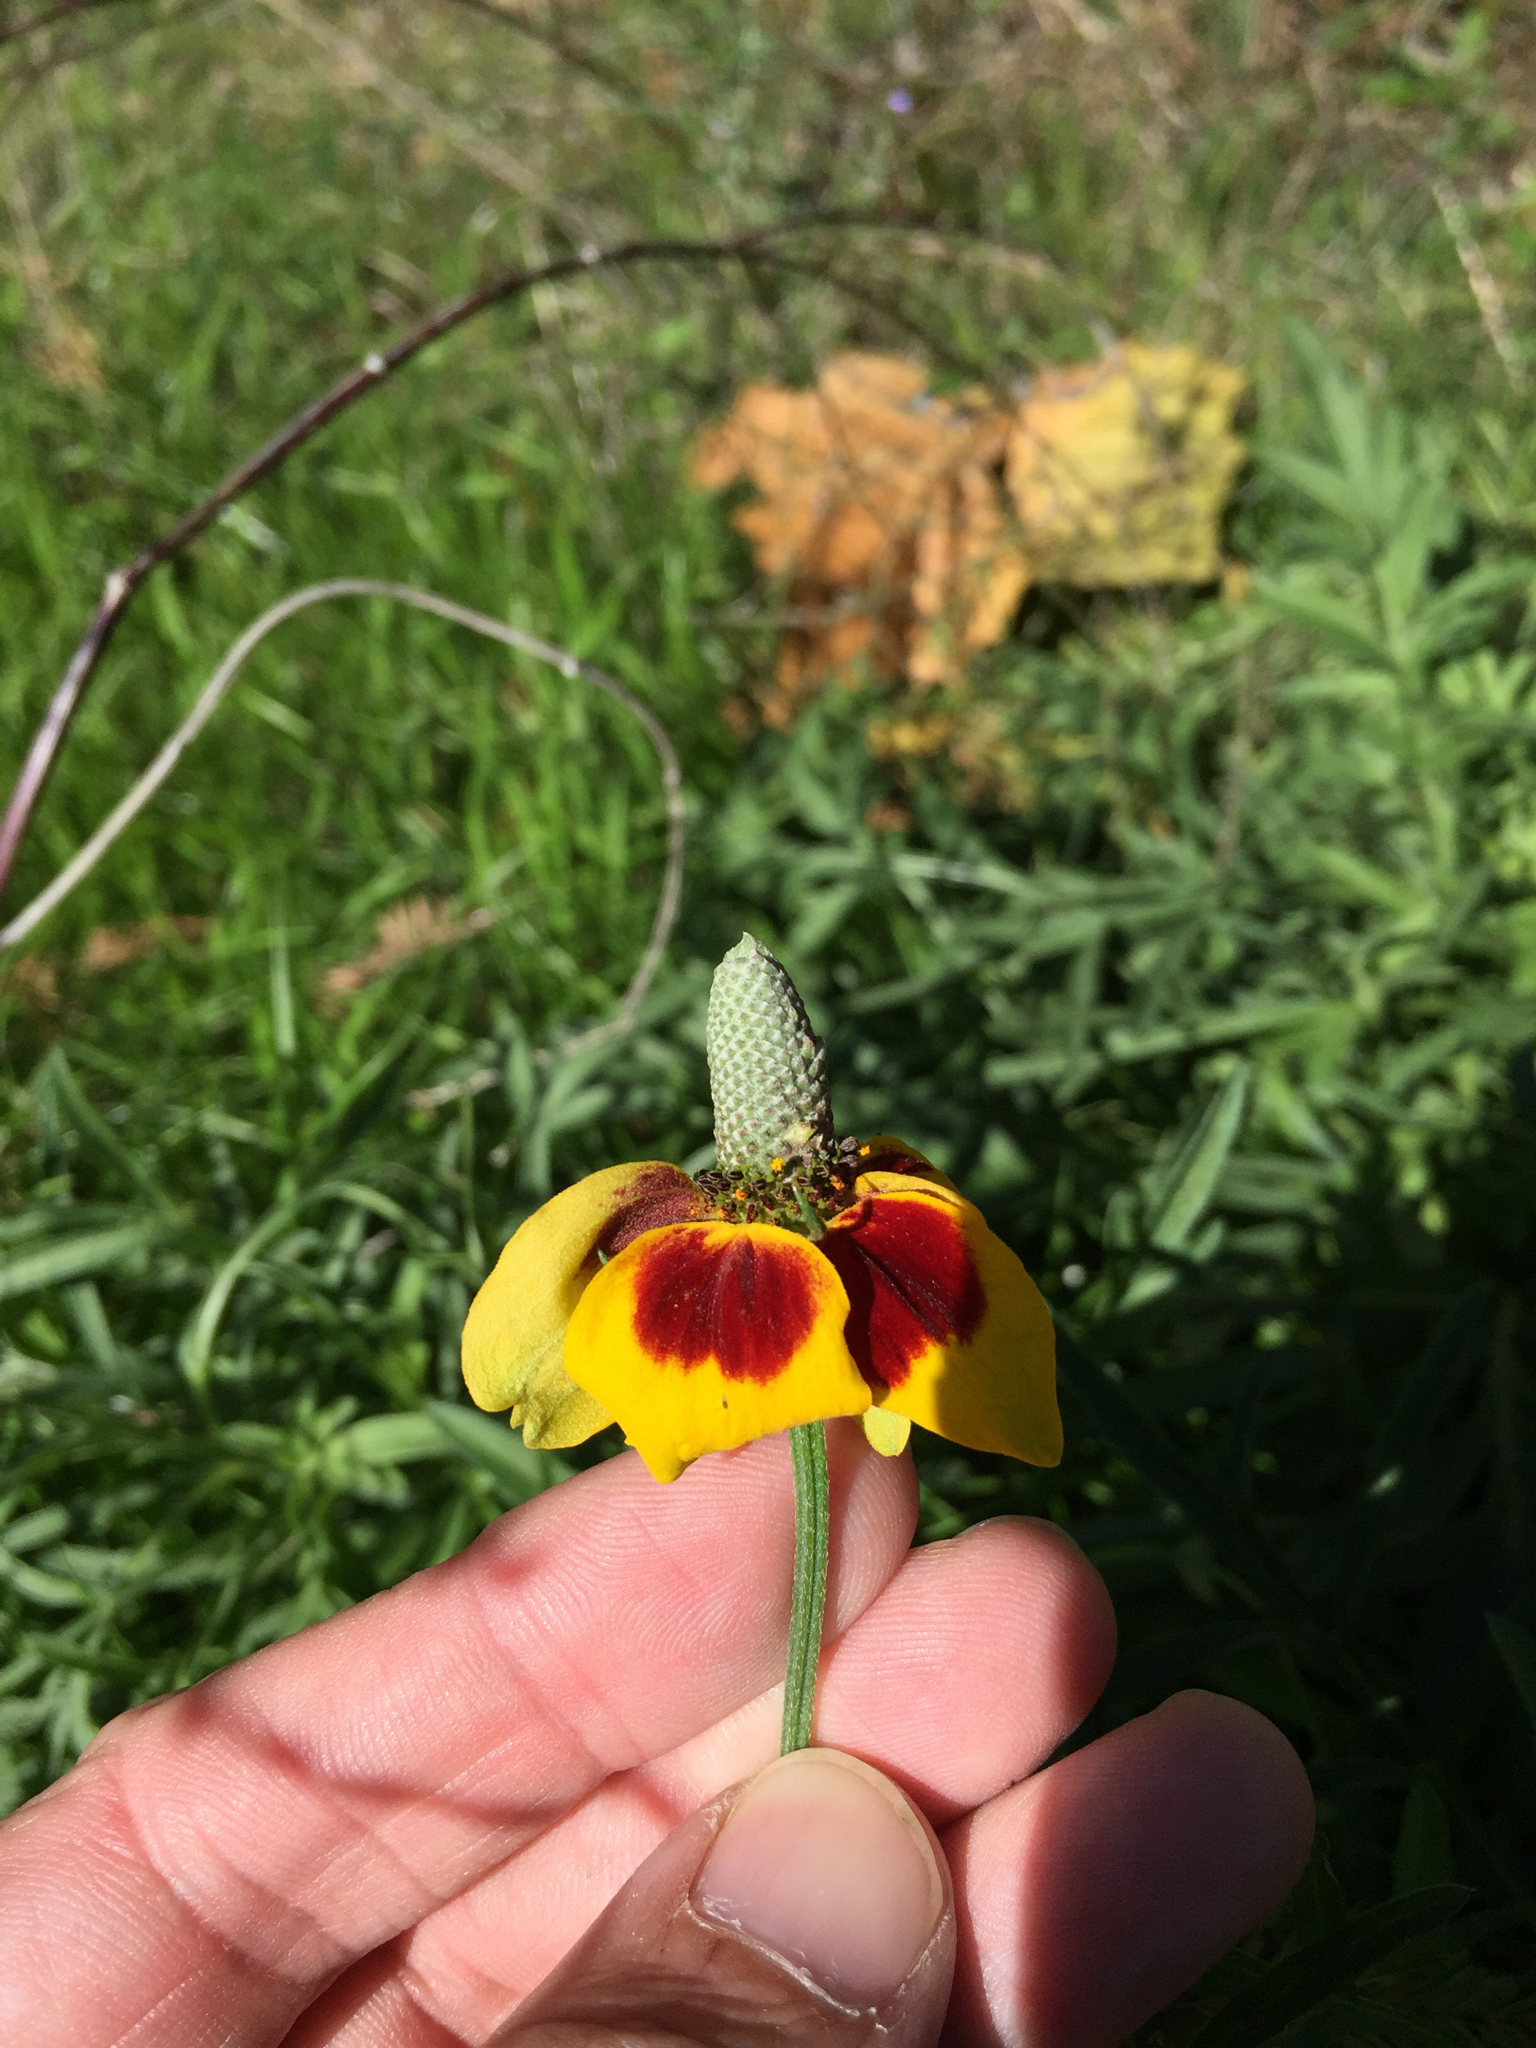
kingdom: Plantae
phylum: Tracheophyta
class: Magnoliopsida
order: Asterales
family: Asteraceae
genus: Ratibida
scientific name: Ratibida columnifera
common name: Prairie coneflower
